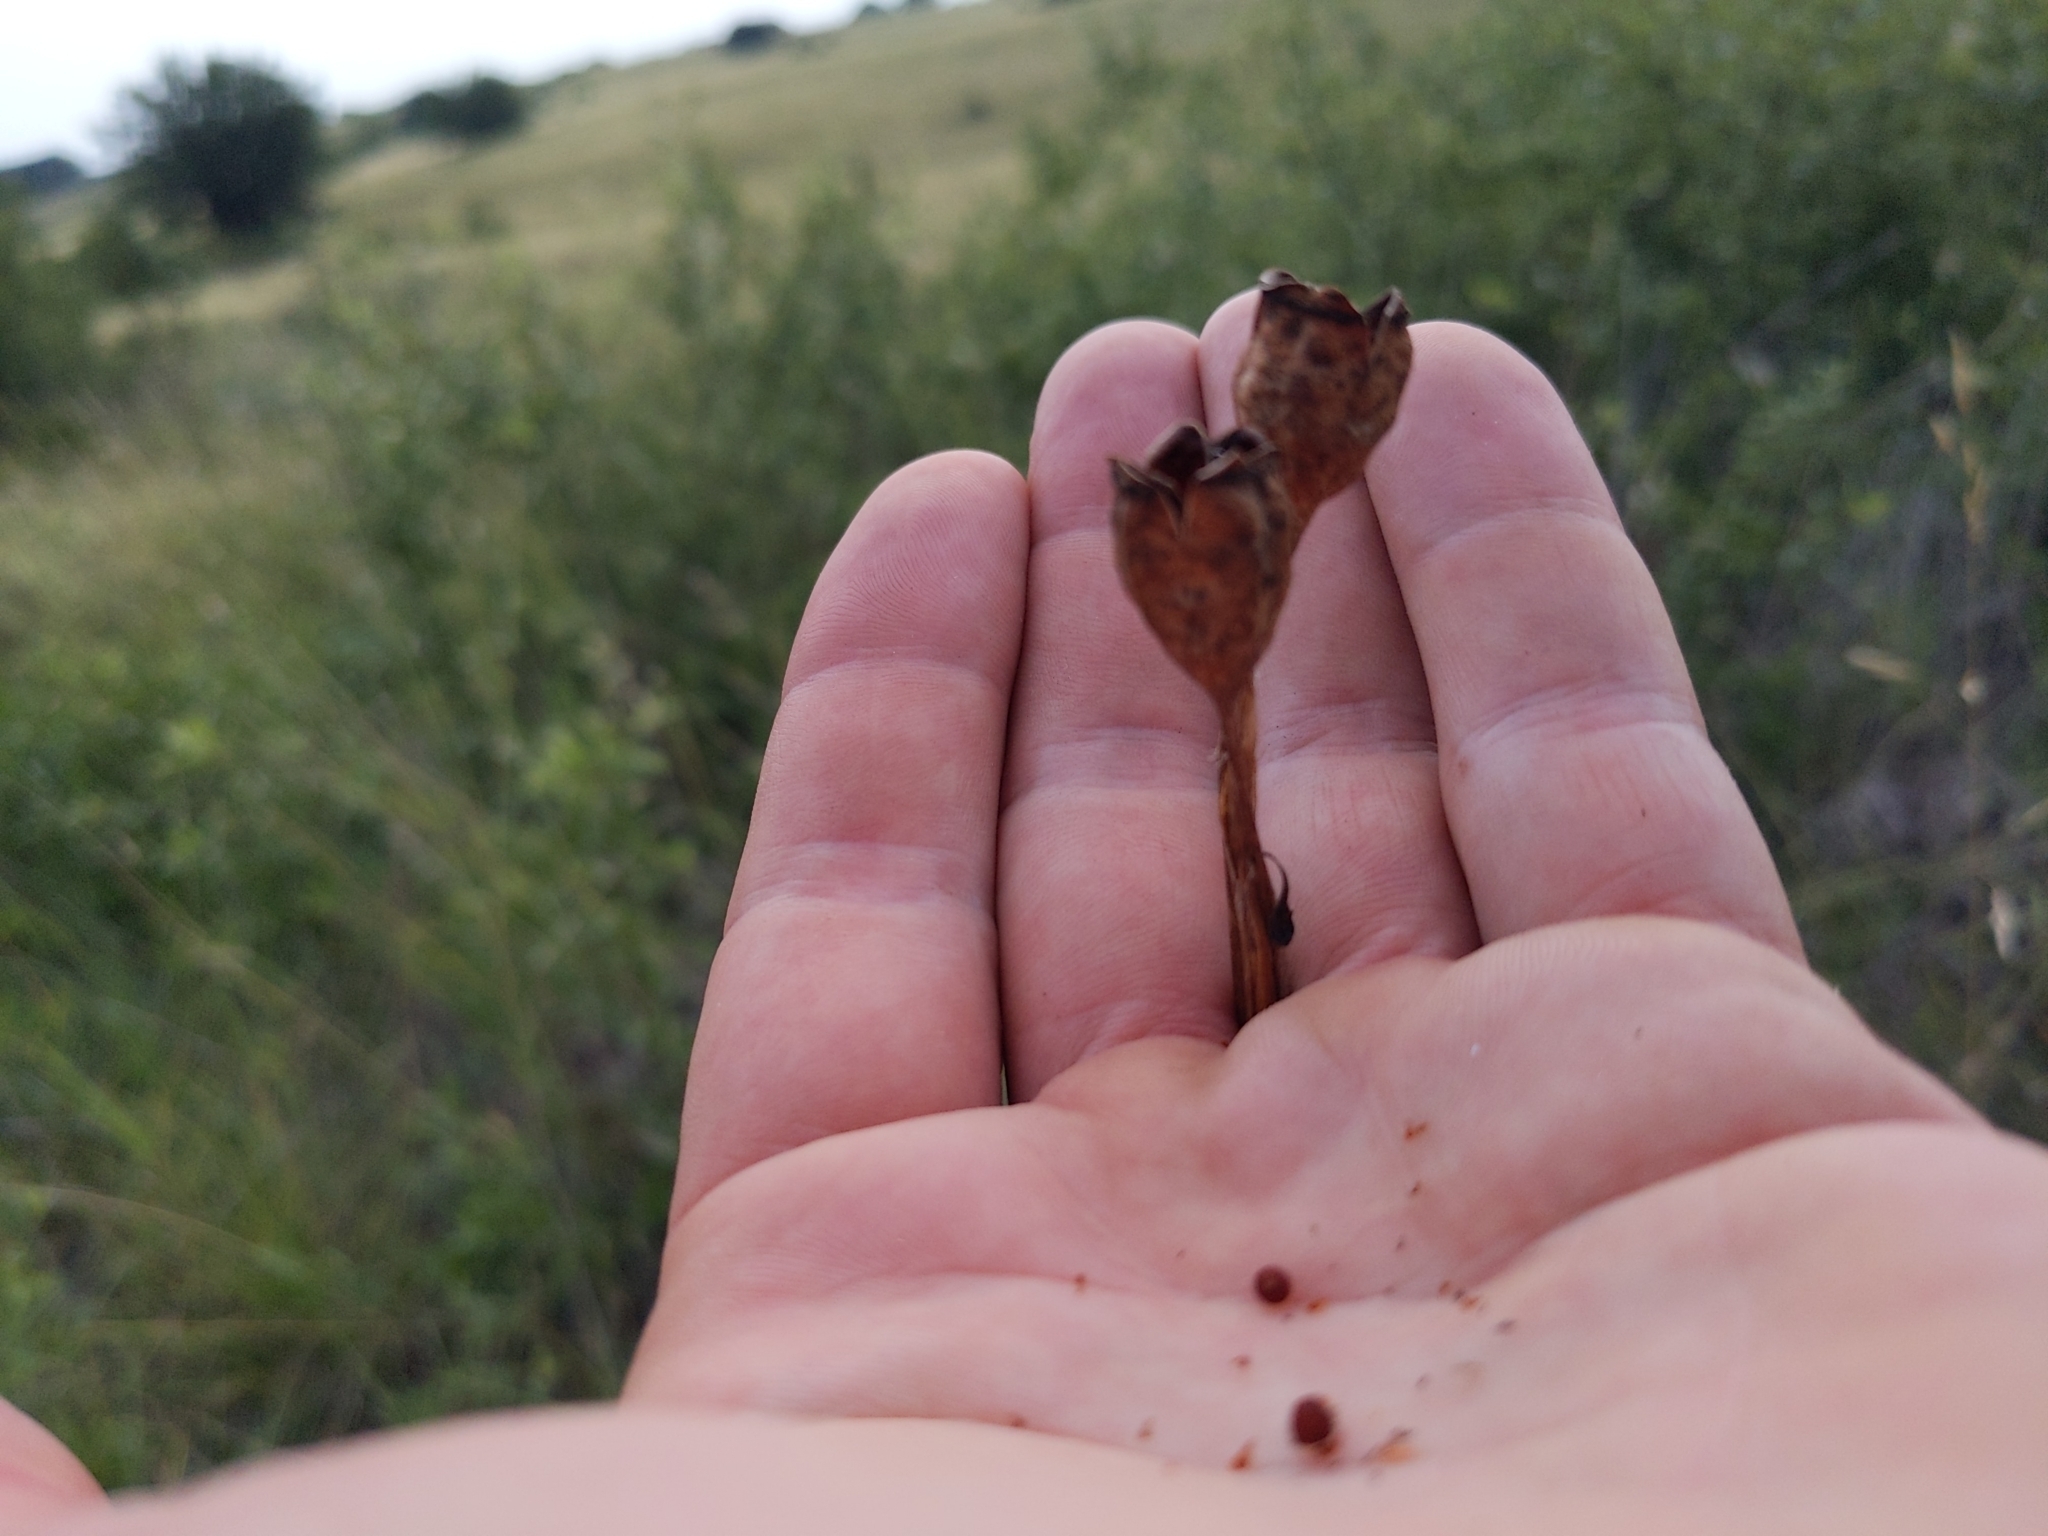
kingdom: Plantae
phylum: Tracheophyta
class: Liliopsida
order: Asparagales
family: Iridaceae
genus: Nemastylis
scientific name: Nemastylis geminiflora
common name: Prairie celestial
